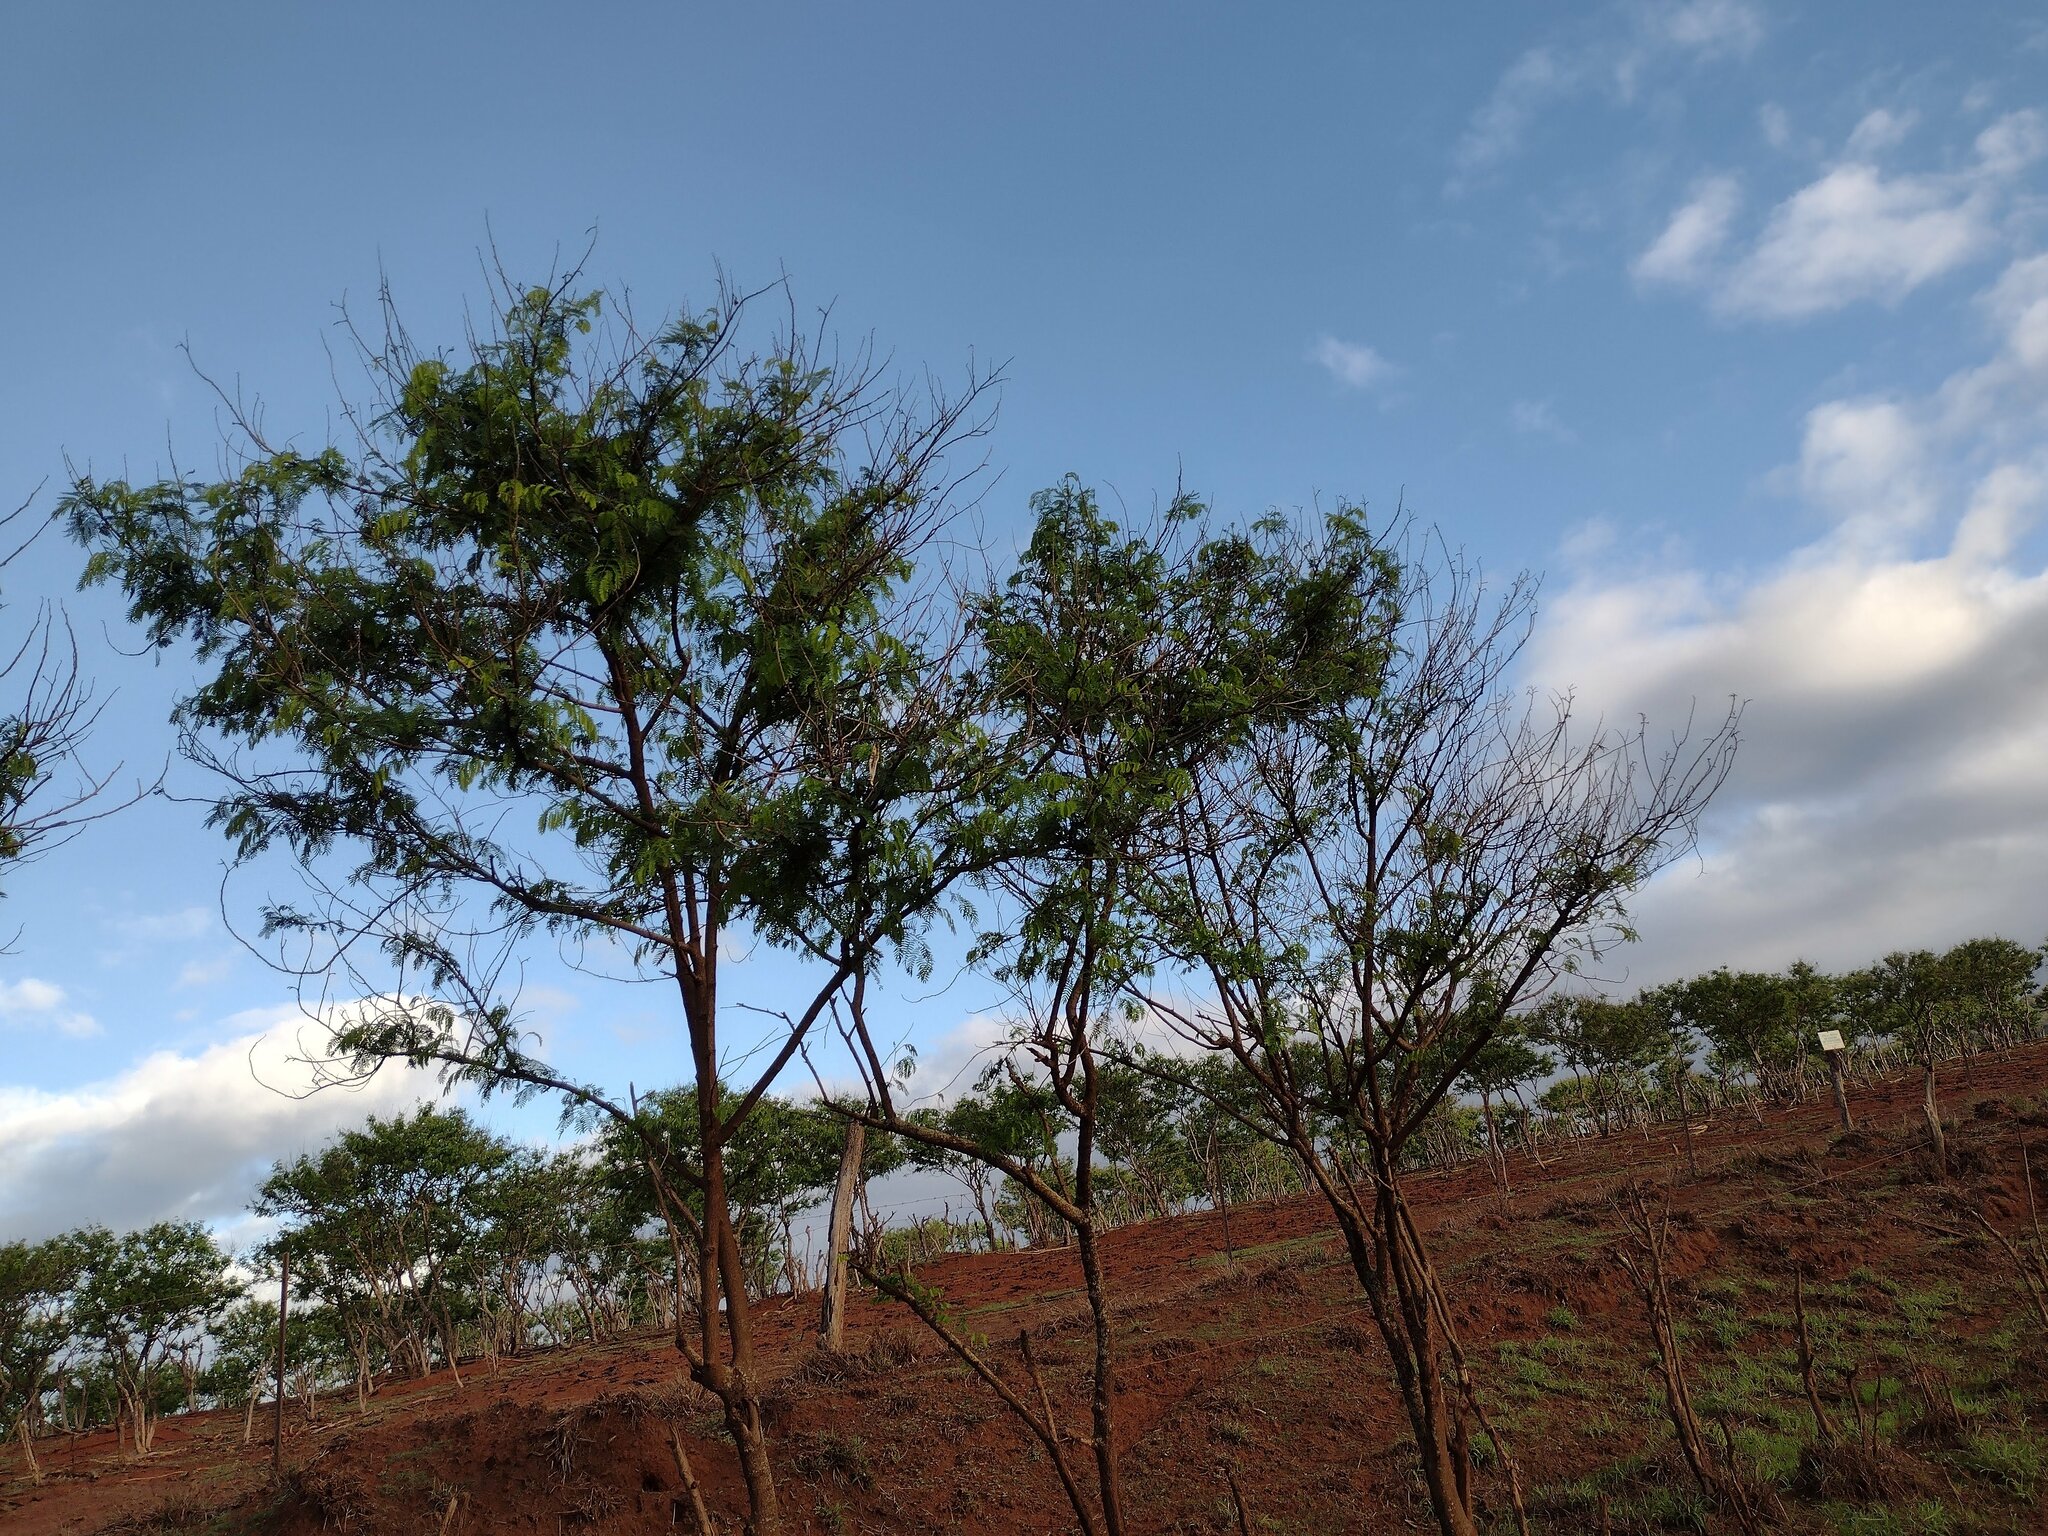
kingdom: Plantae
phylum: Tracheophyta
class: Magnoliopsida
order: Fabales
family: Fabaceae
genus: Leucaena
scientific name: Leucaena leucocephala
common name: White leadtree
